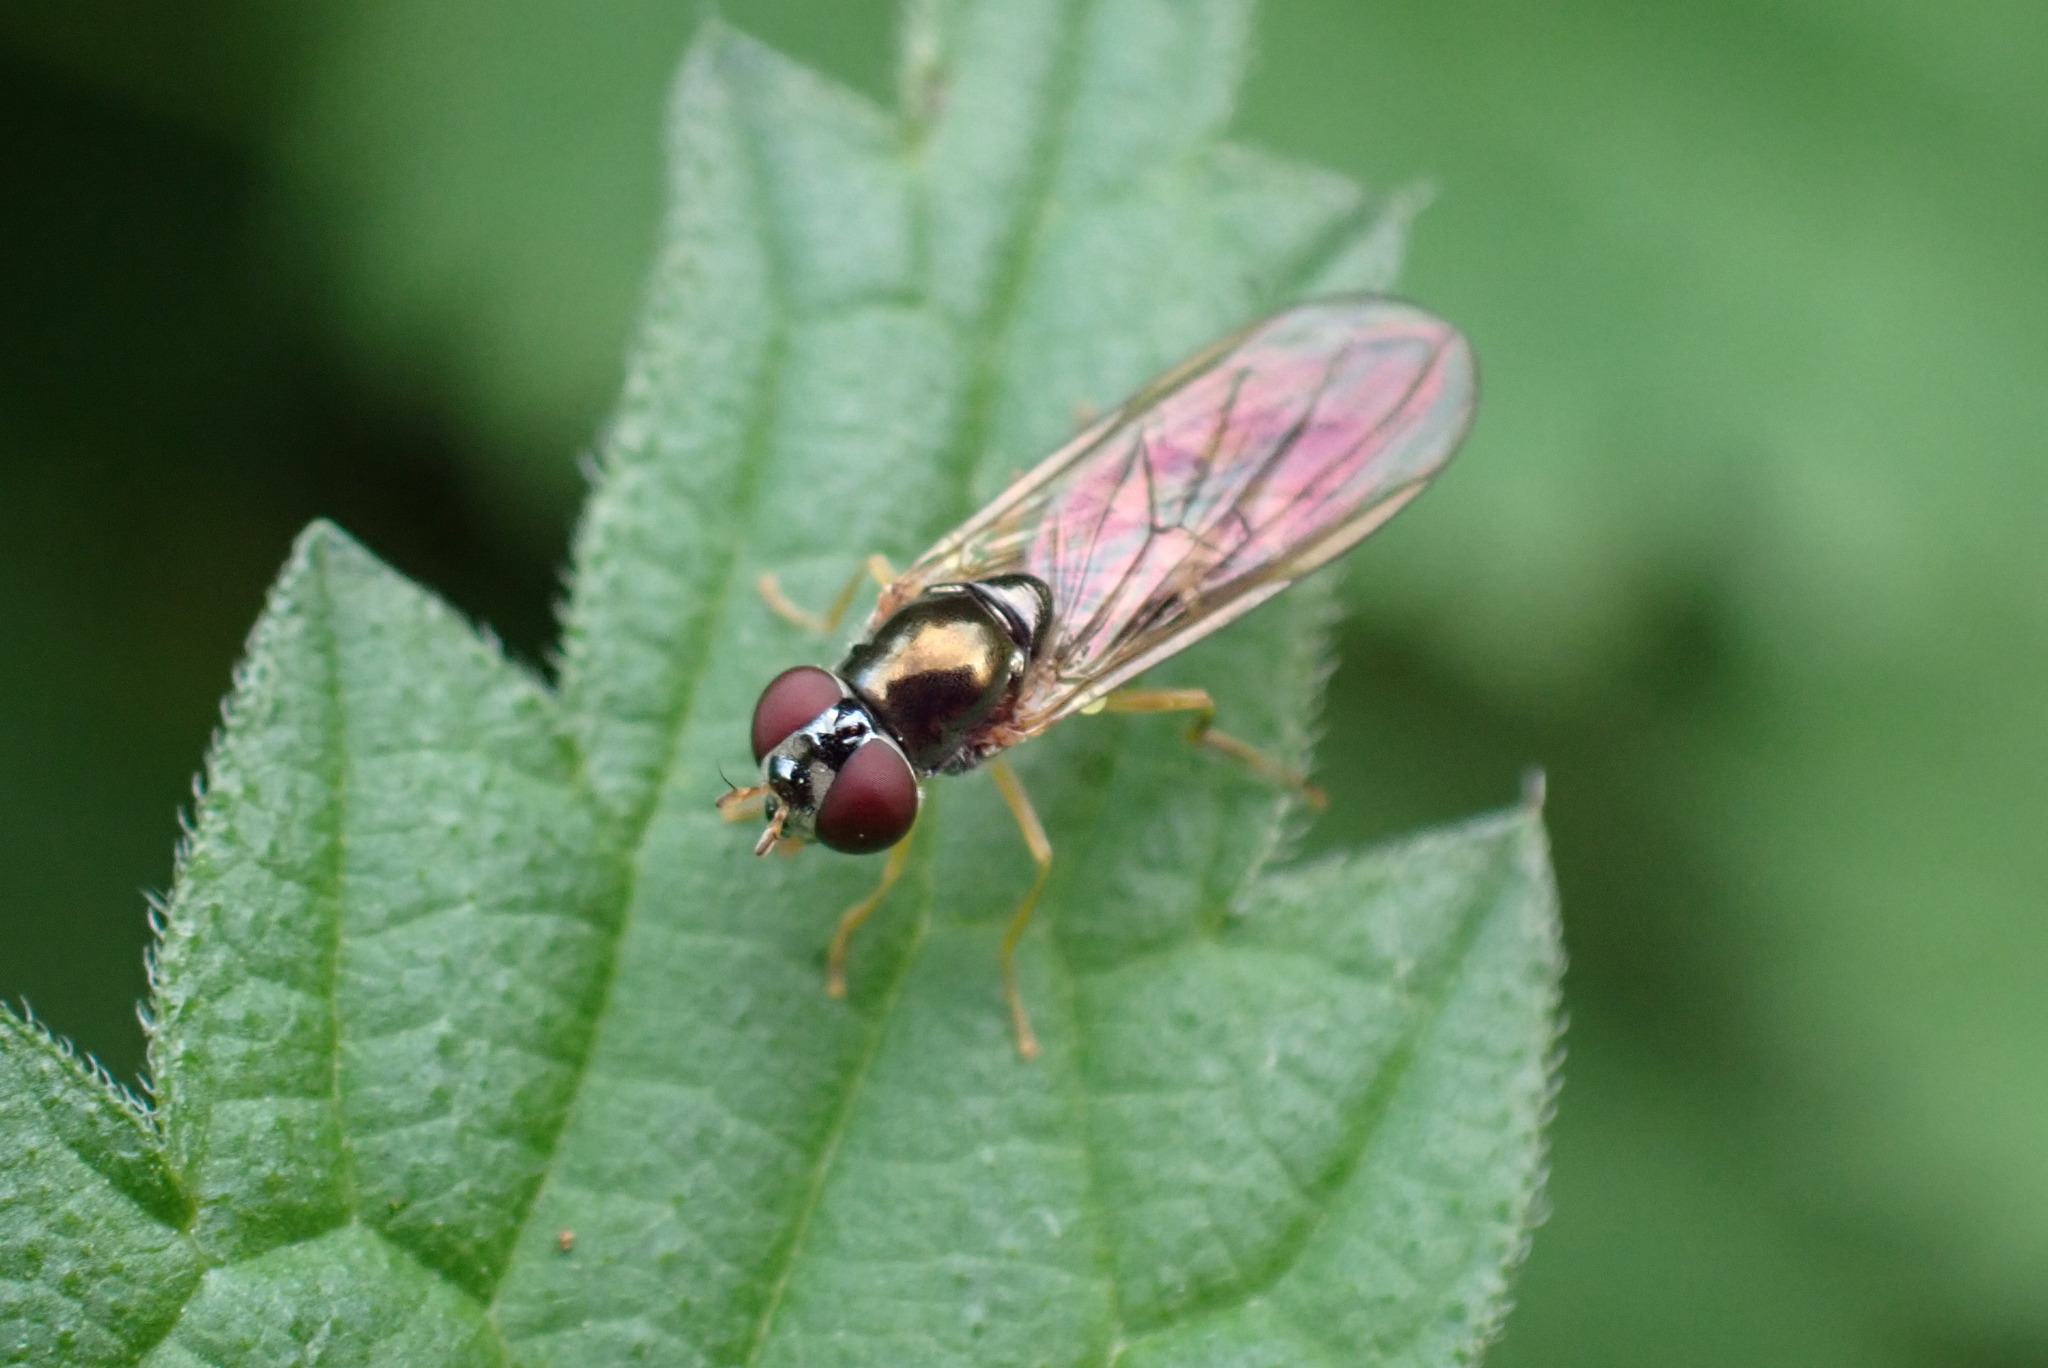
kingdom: Animalia
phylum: Arthropoda
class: Insecta
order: Diptera
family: Syrphidae
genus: Melanostoma
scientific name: Melanostoma scalare
